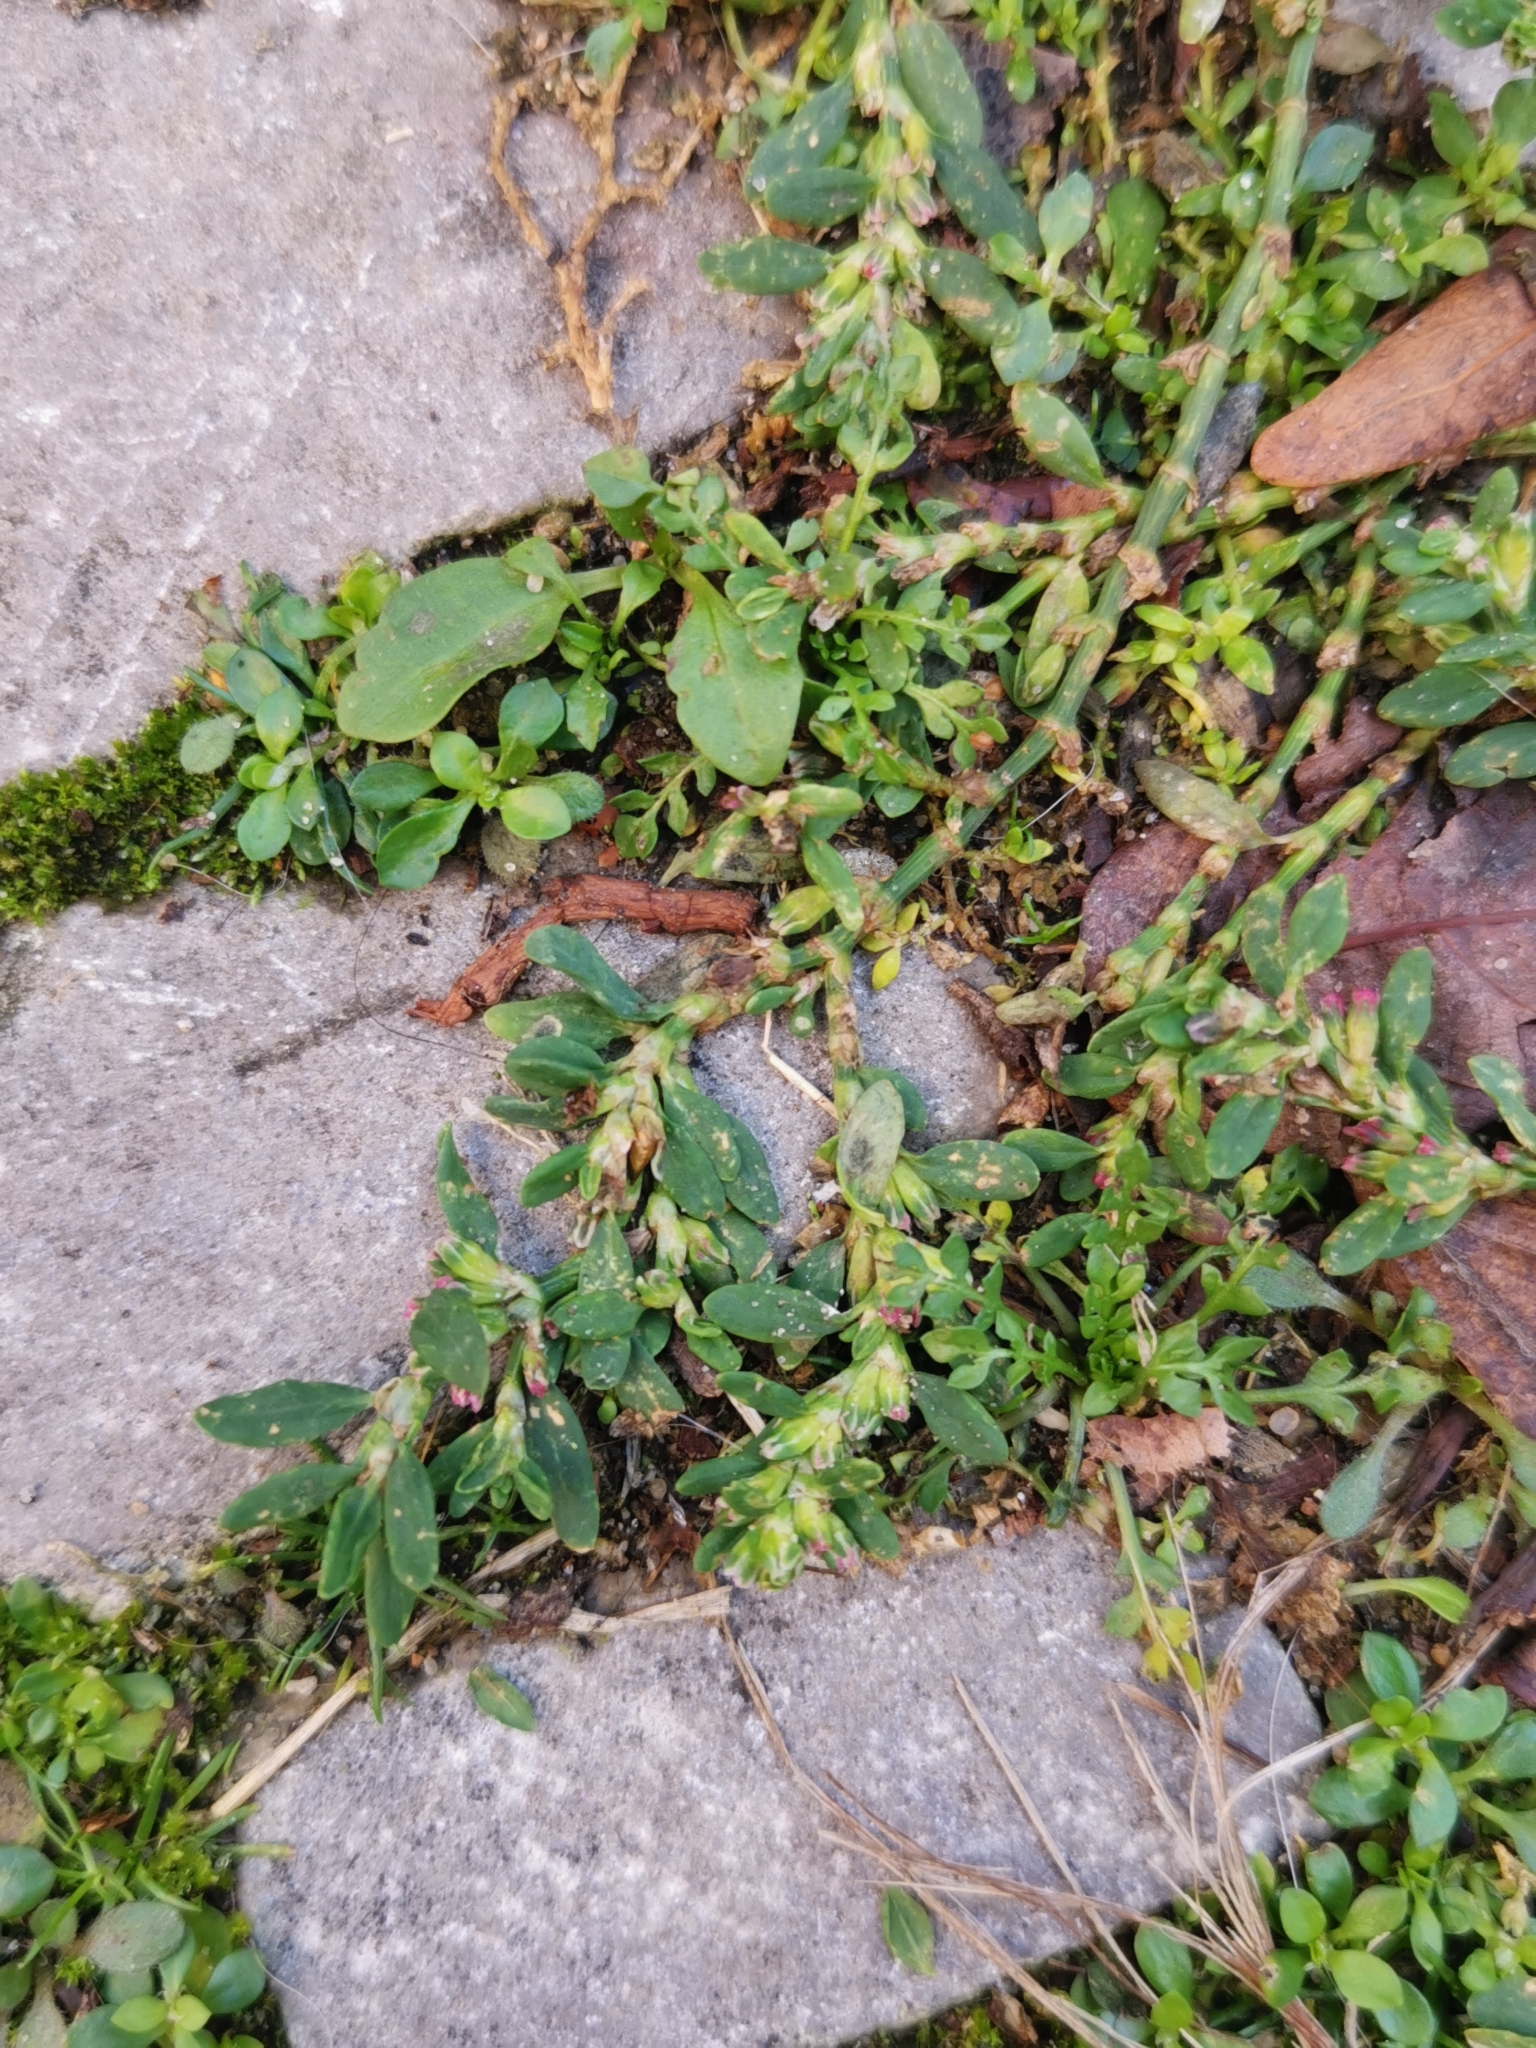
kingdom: Plantae
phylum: Tracheophyta
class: Magnoliopsida
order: Caryophyllales
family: Polygonaceae
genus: Polygonum
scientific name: Polygonum arenastrum
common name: Equal-leaved knotgrass
